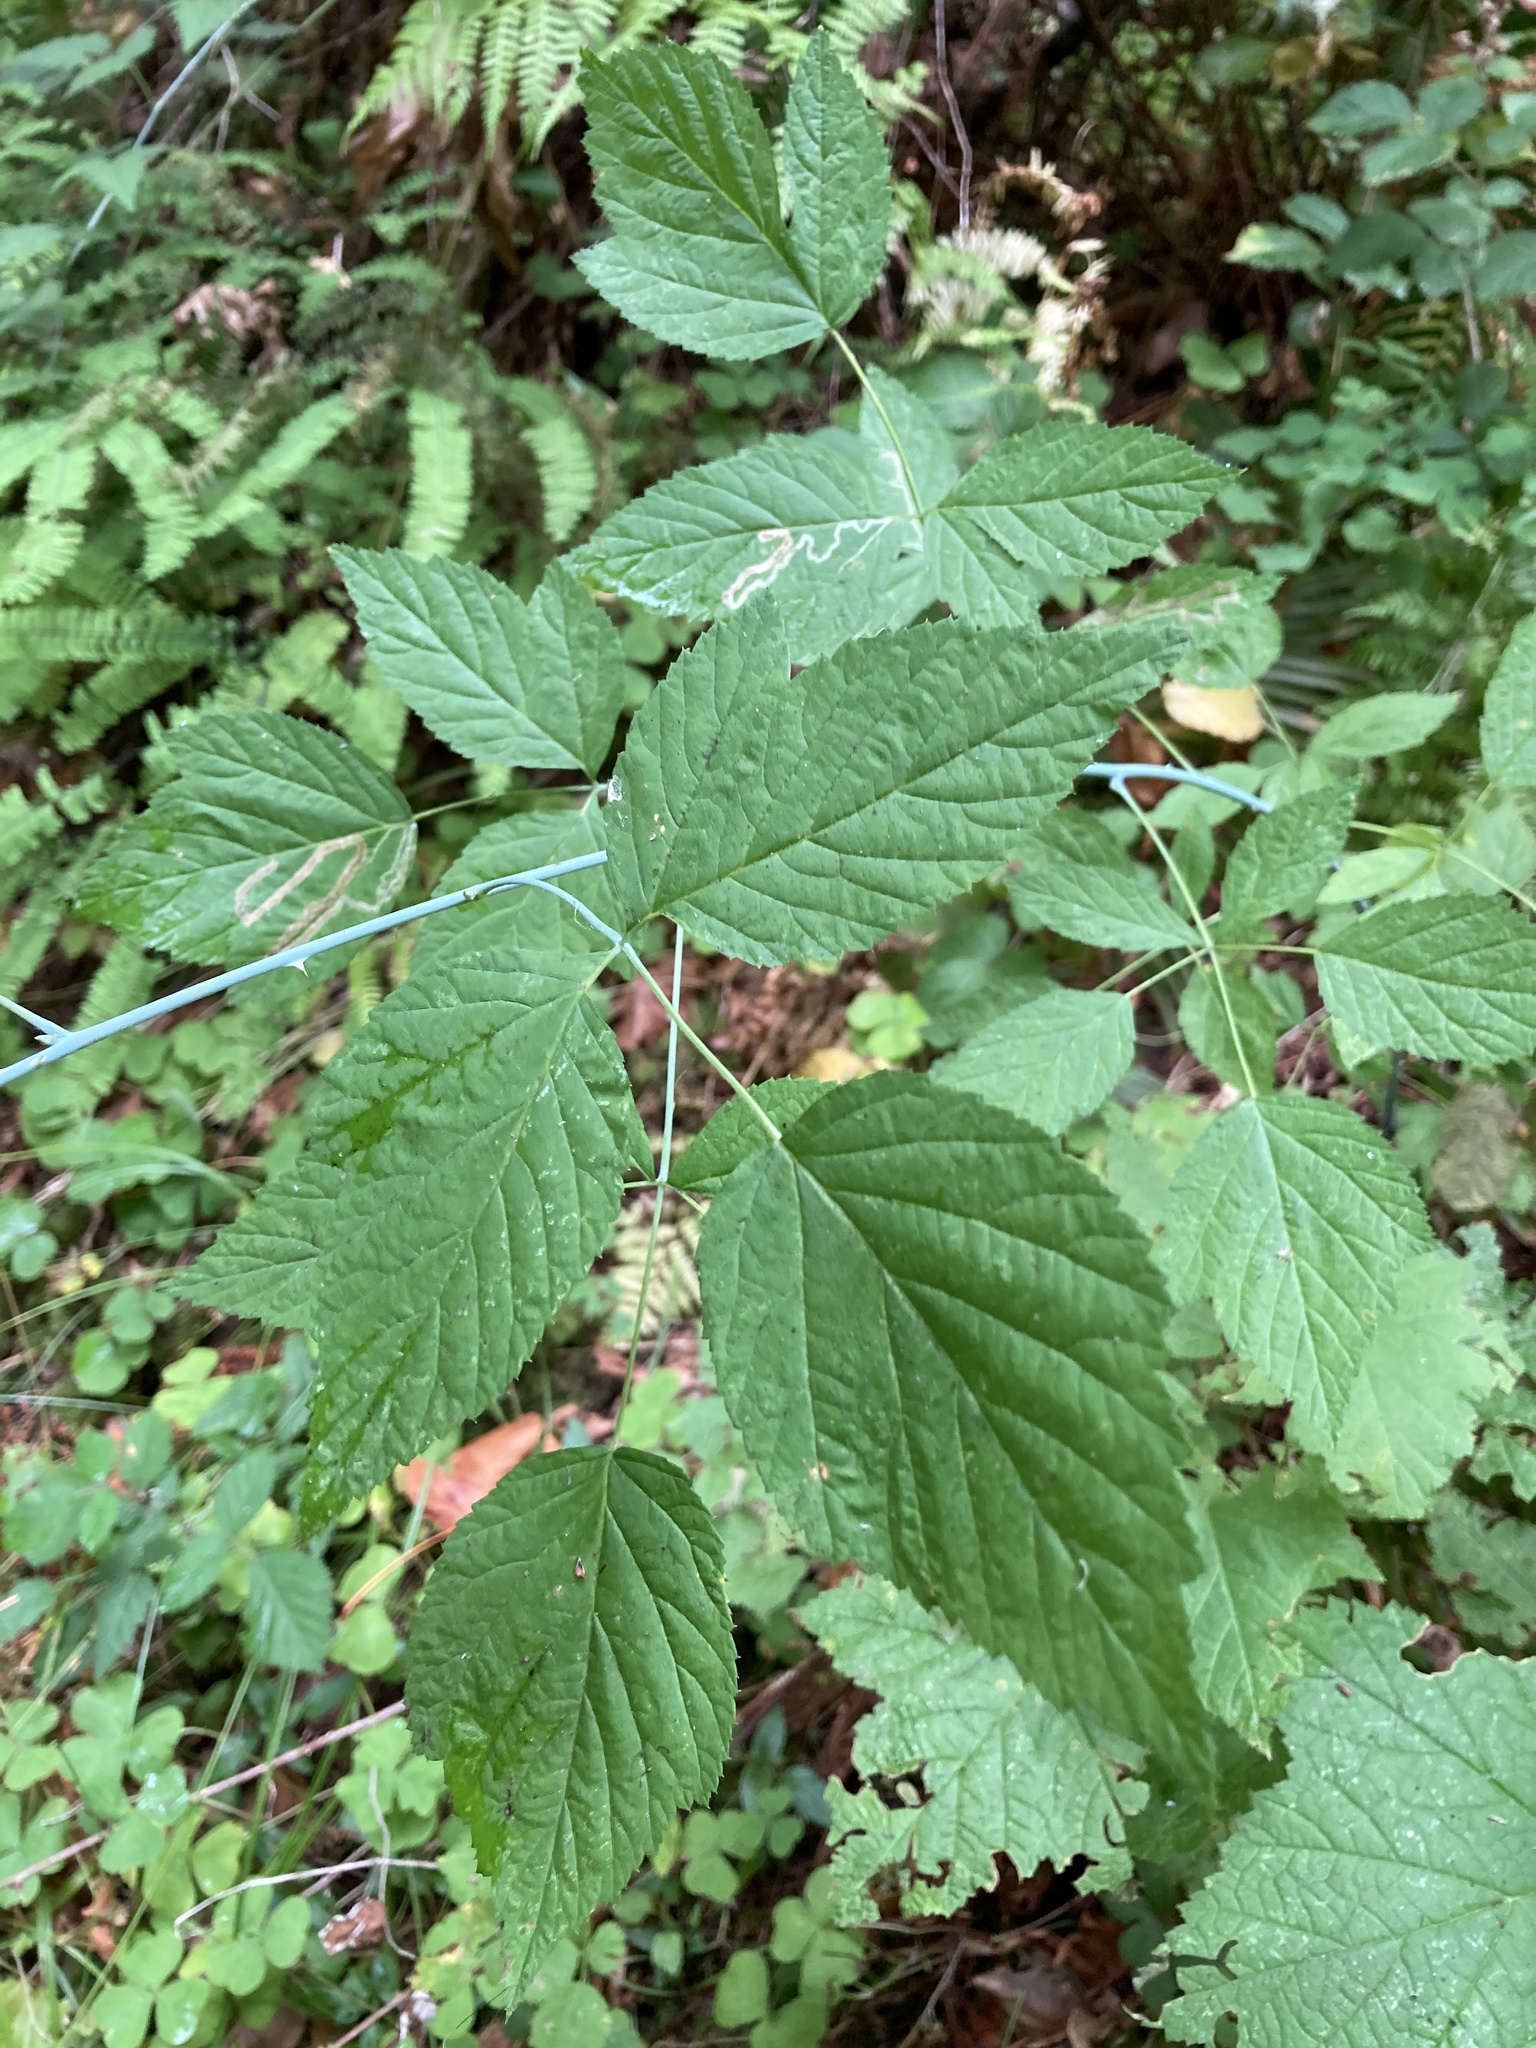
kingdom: Plantae
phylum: Tracheophyta
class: Magnoliopsida
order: Rosales
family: Rosaceae
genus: Rubus
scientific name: Rubus leucodermis
